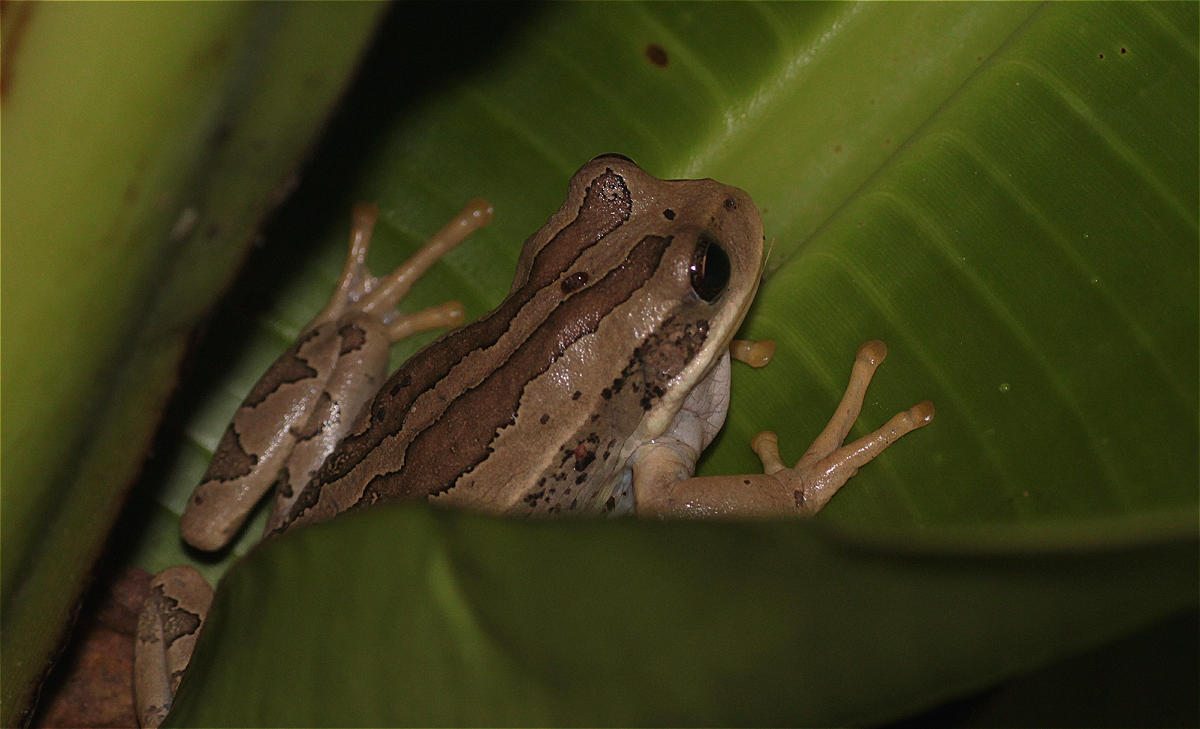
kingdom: Animalia
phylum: Chordata
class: Amphibia
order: Anura
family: Hemiphractidae
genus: Gastrotheca
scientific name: Gastrotheca cuencana
